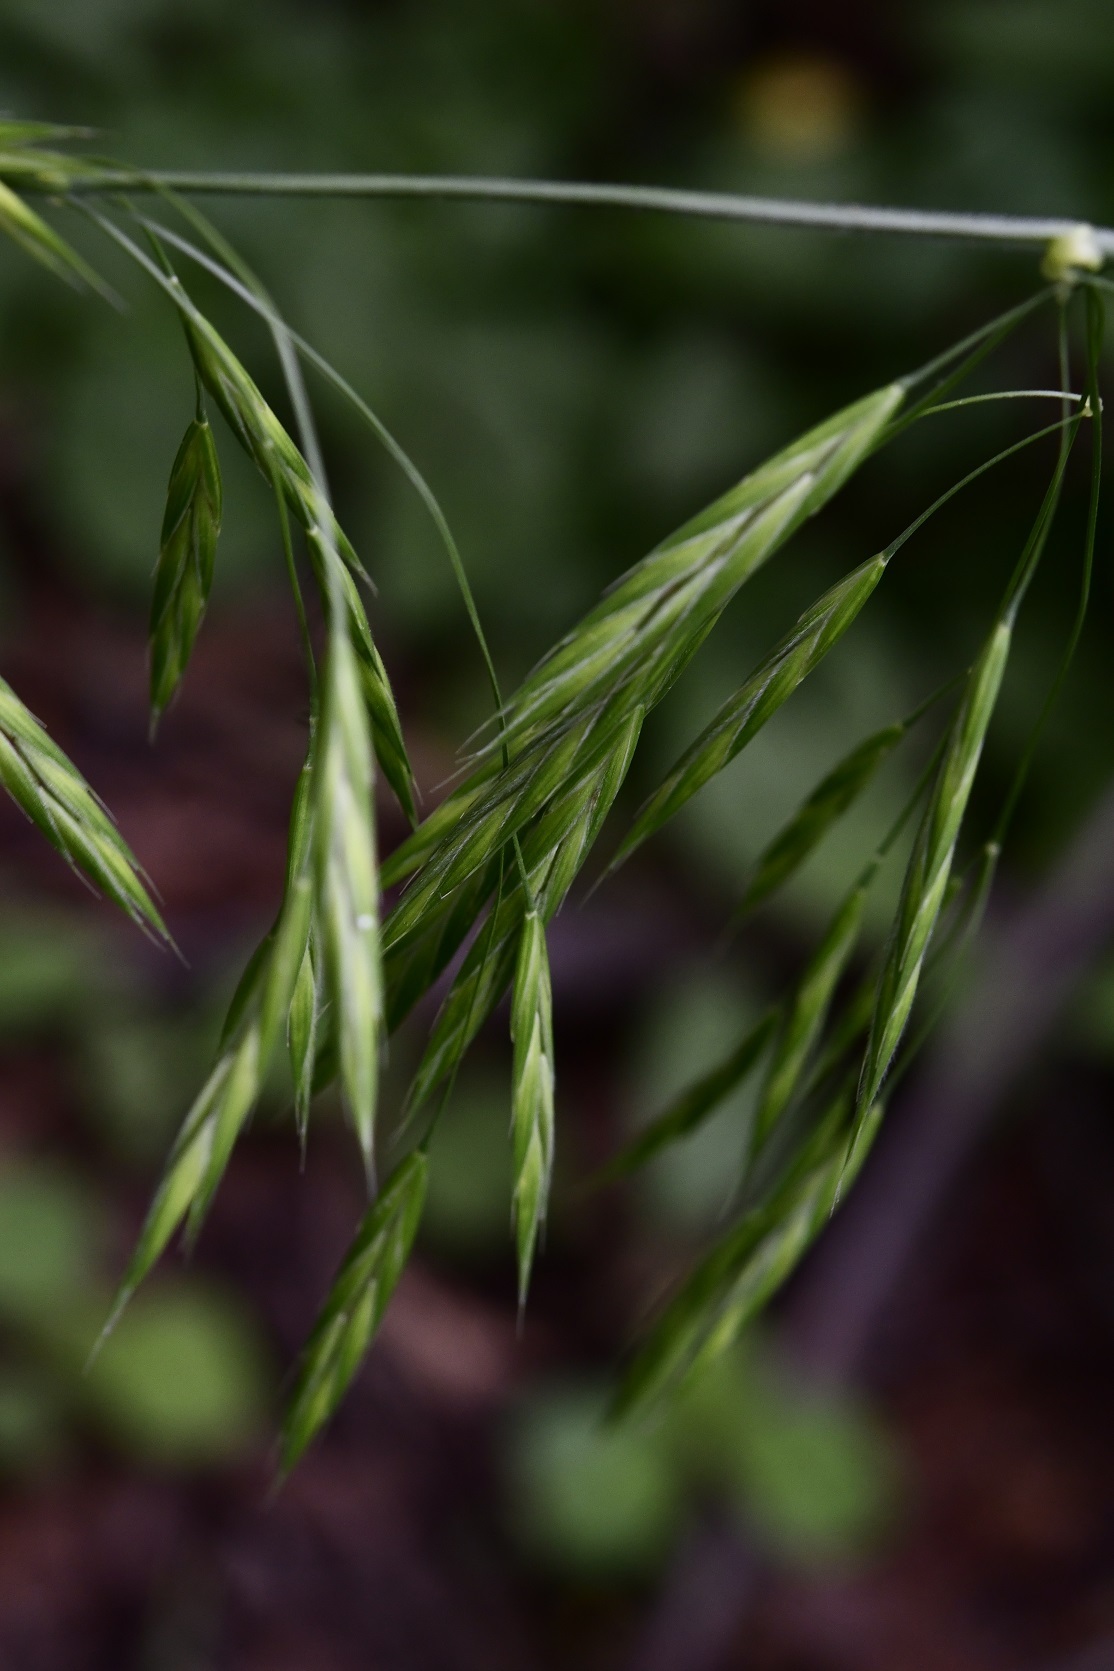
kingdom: Plantae
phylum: Tracheophyta
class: Liliopsida
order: Poales
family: Poaceae
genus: Bromus
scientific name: Bromus anomalus
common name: Nodding brome
